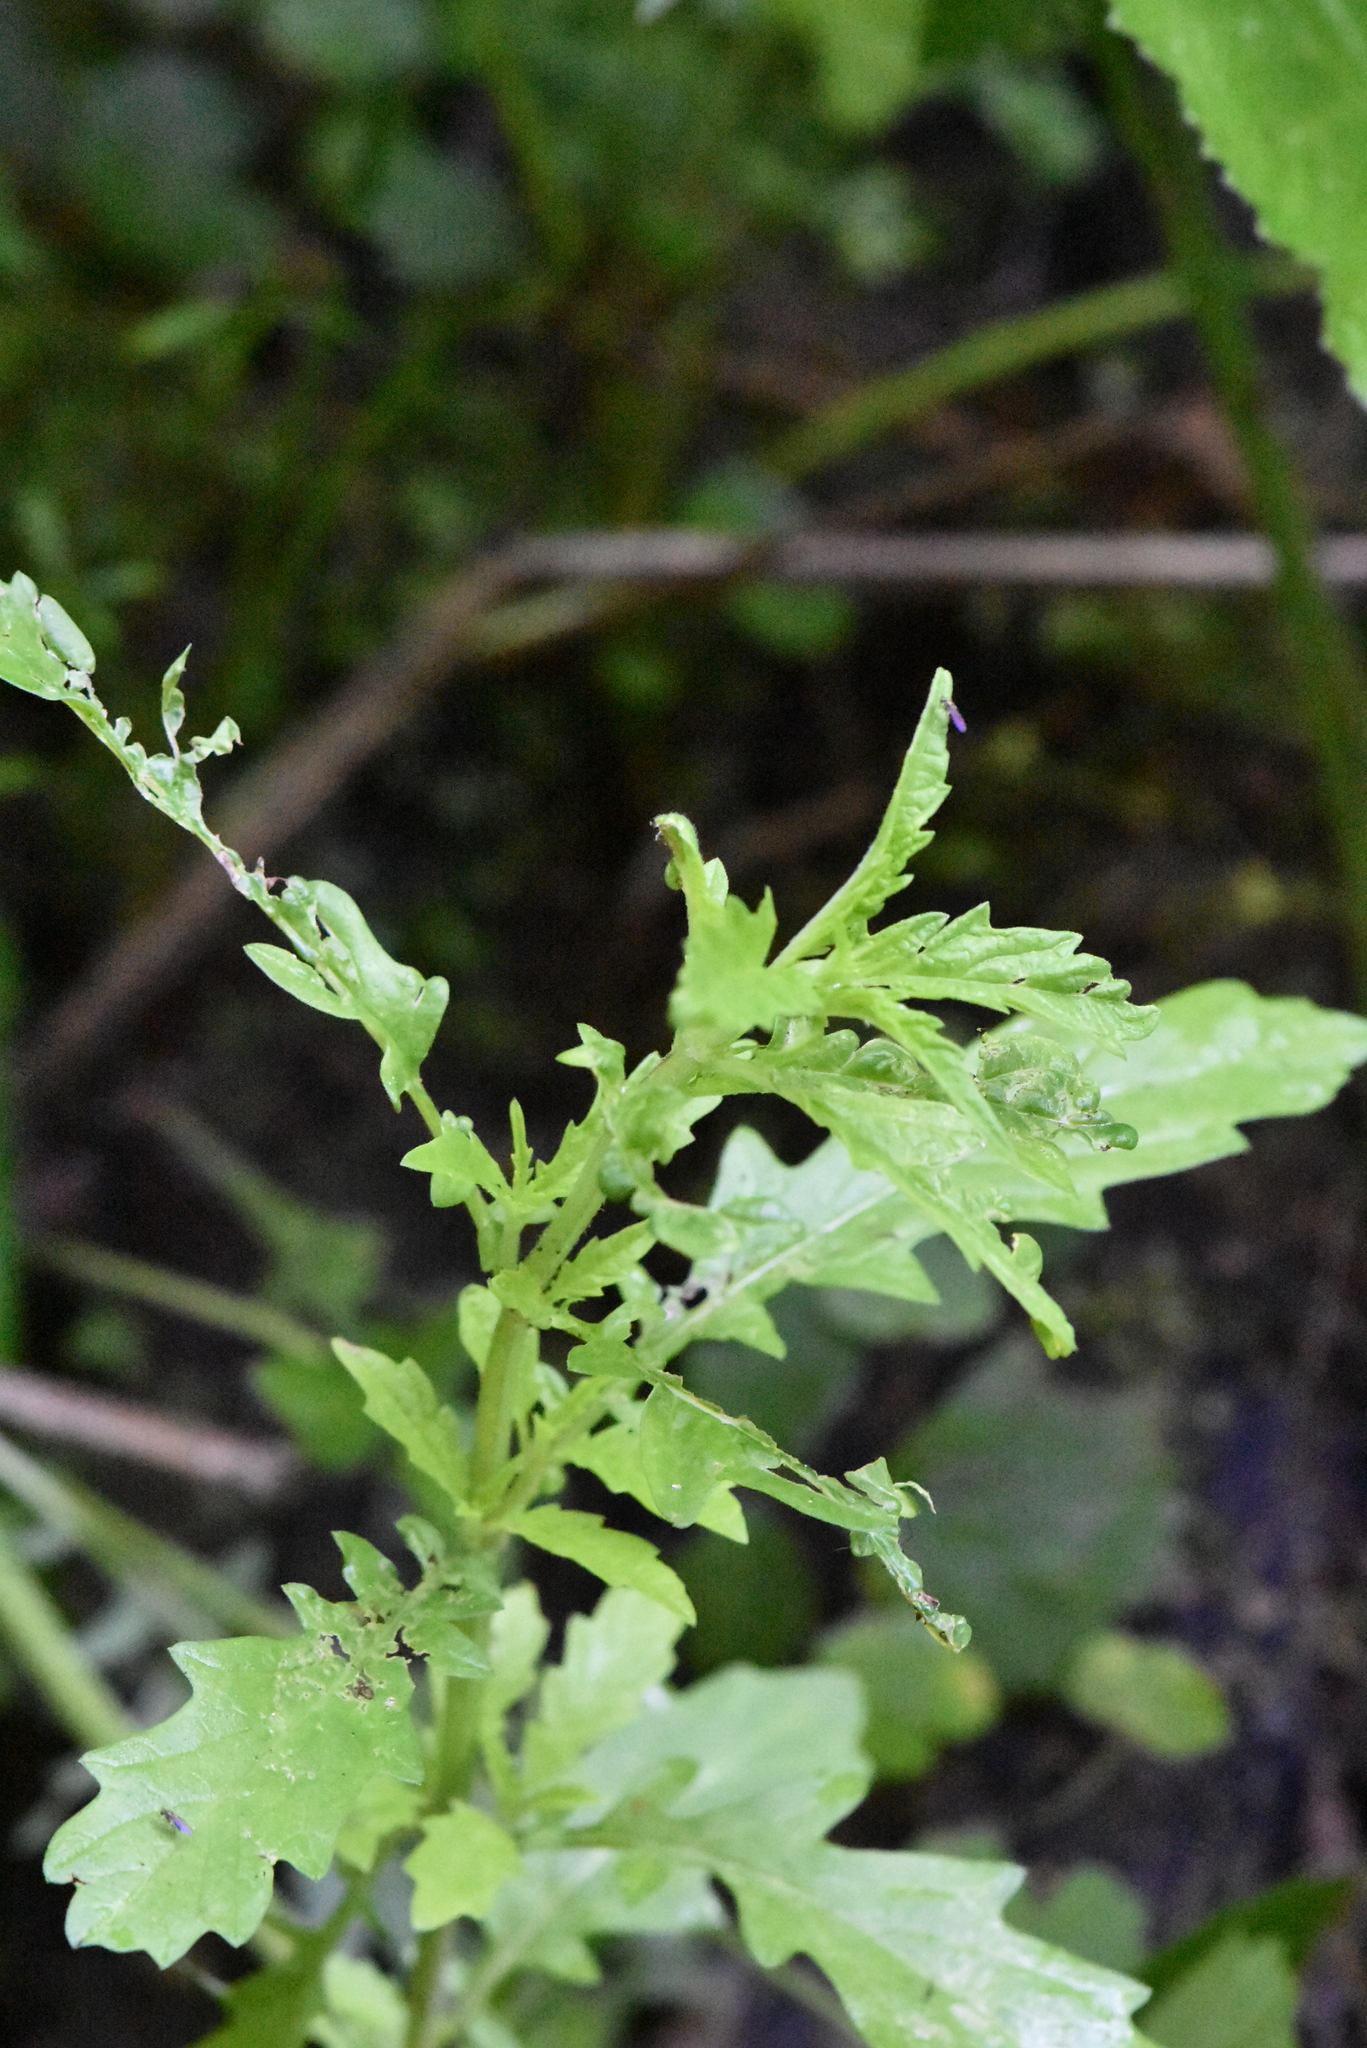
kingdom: Plantae
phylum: Tracheophyta
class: Magnoliopsida
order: Lamiales
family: Lamiaceae
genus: Lycopus
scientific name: Lycopus europaeus
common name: European bugleweed
